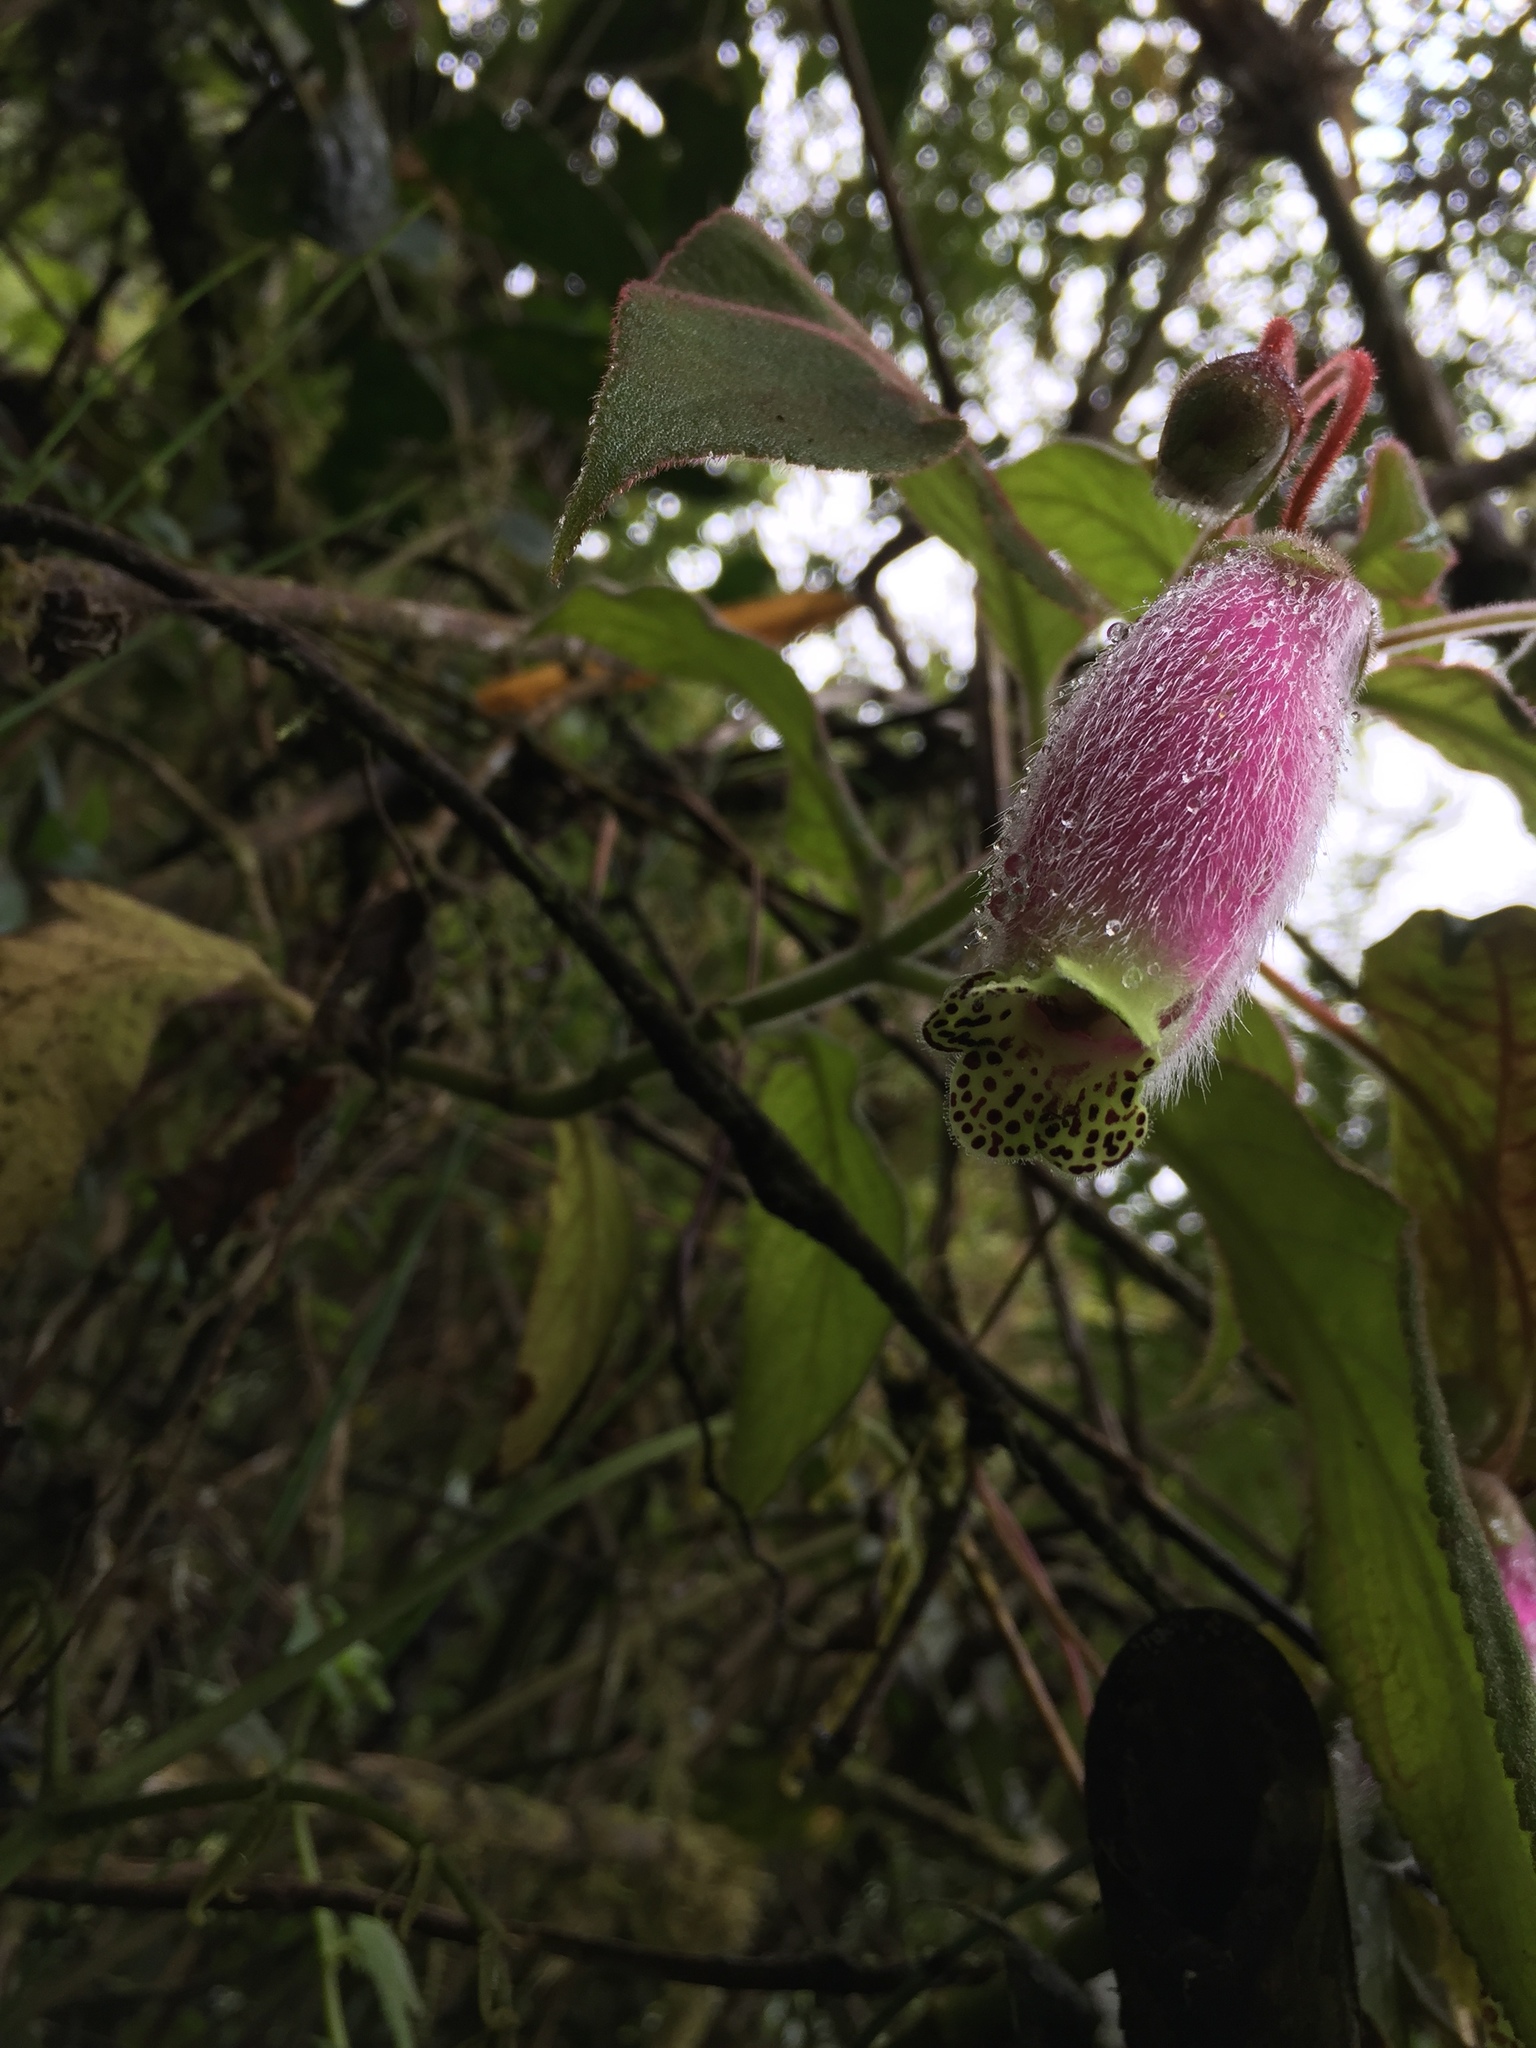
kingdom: Plantae
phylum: Tracheophyta
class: Magnoliopsida
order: Lamiales
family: Gesneriaceae
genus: Kohleria
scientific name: Kohleria affinis
